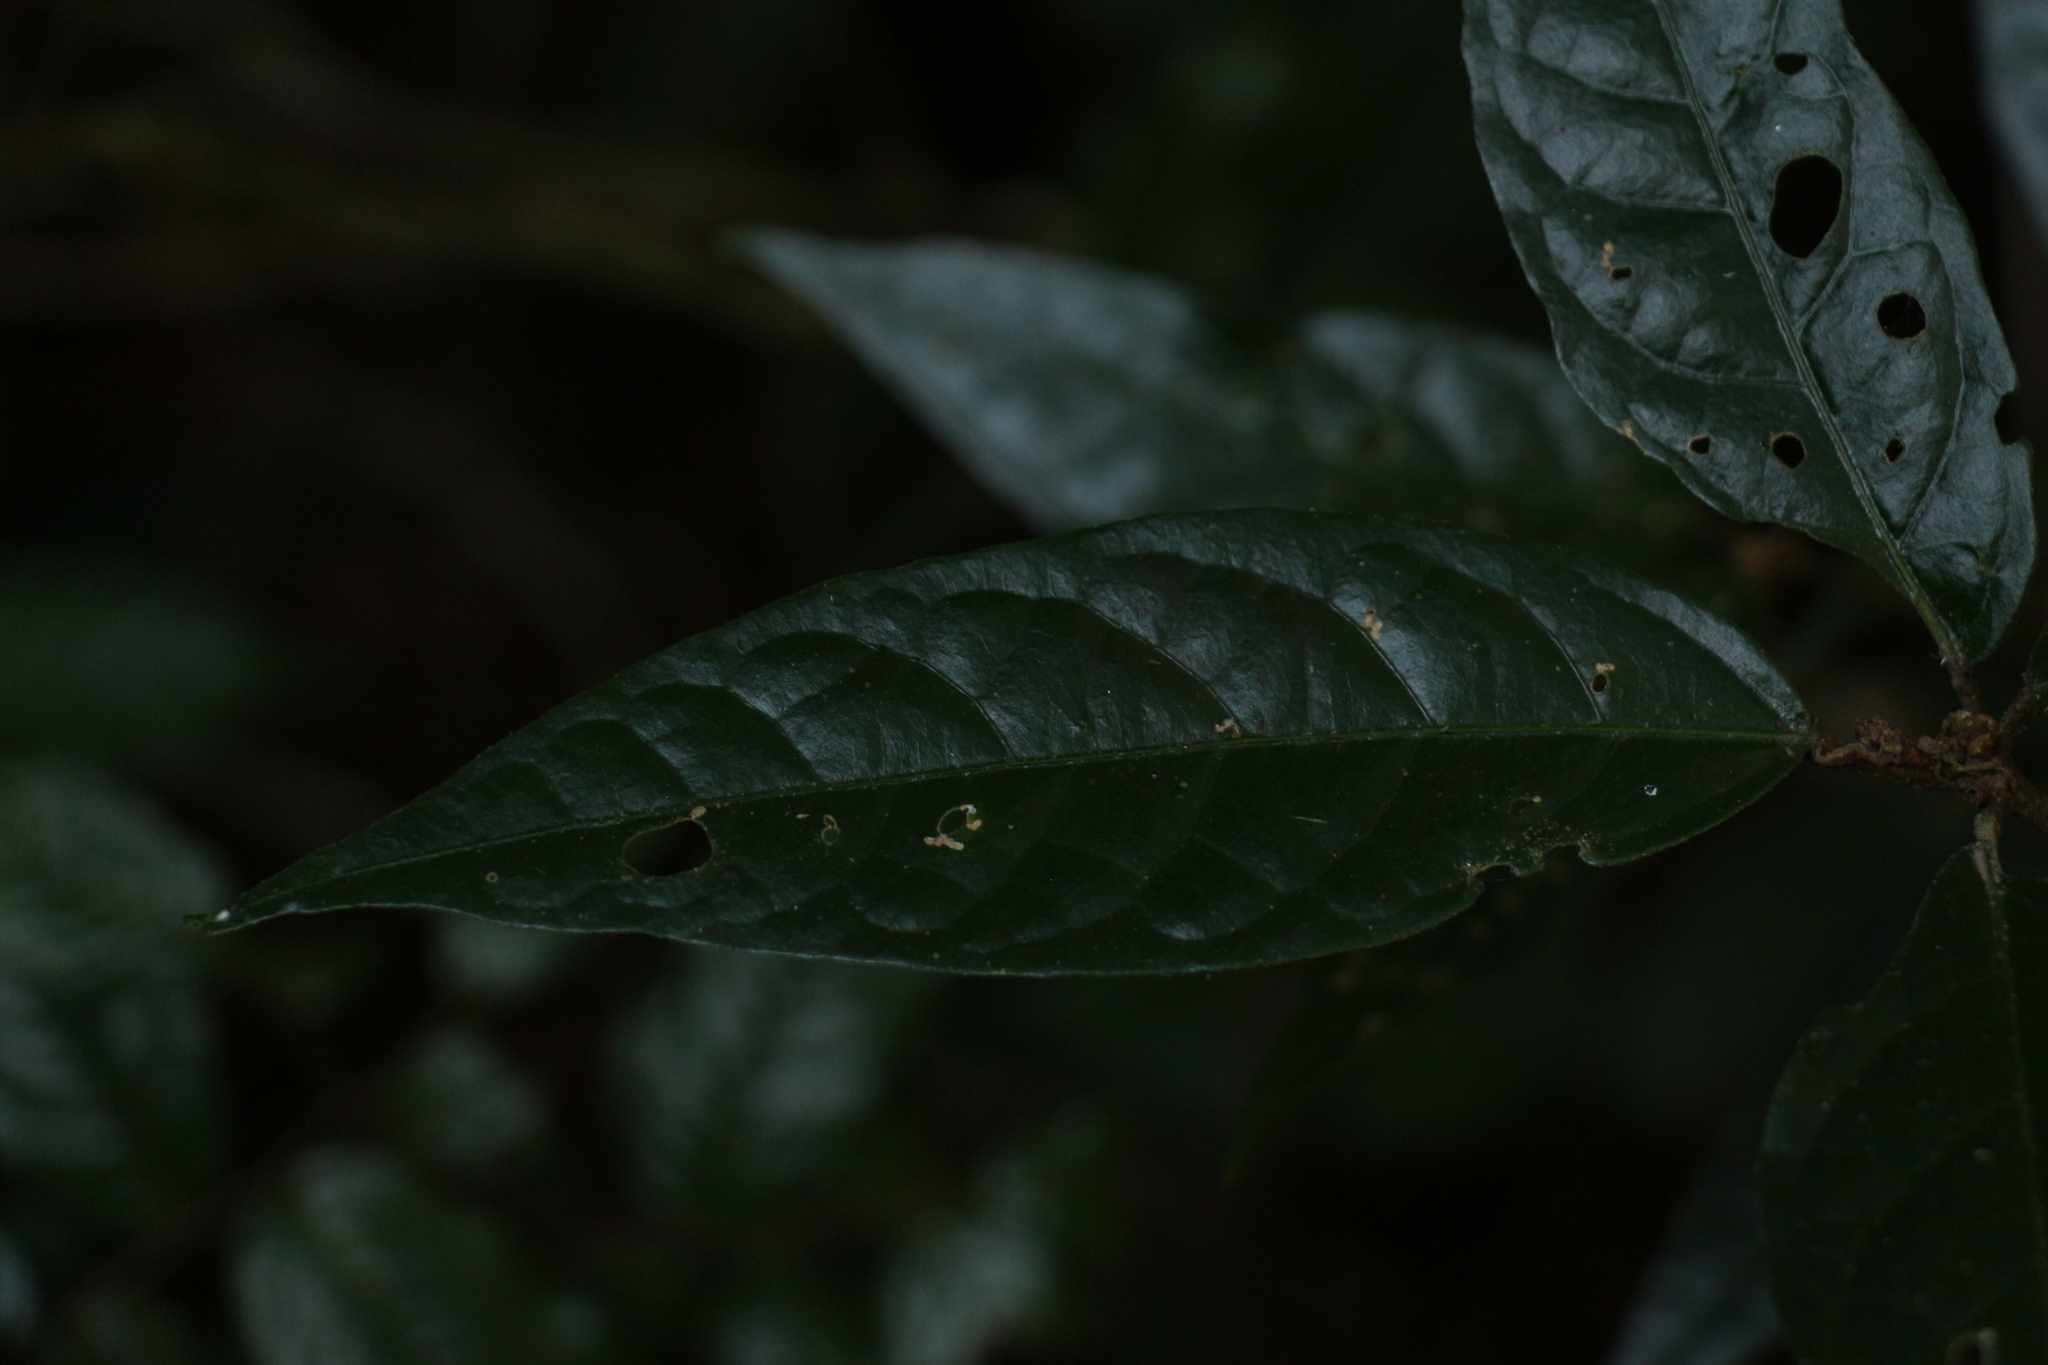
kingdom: Plantae
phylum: Tracheophyta
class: Magnoliopsida
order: Malpighiales
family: Euphorbiaceae
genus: Croton
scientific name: Croton zeylanicus
